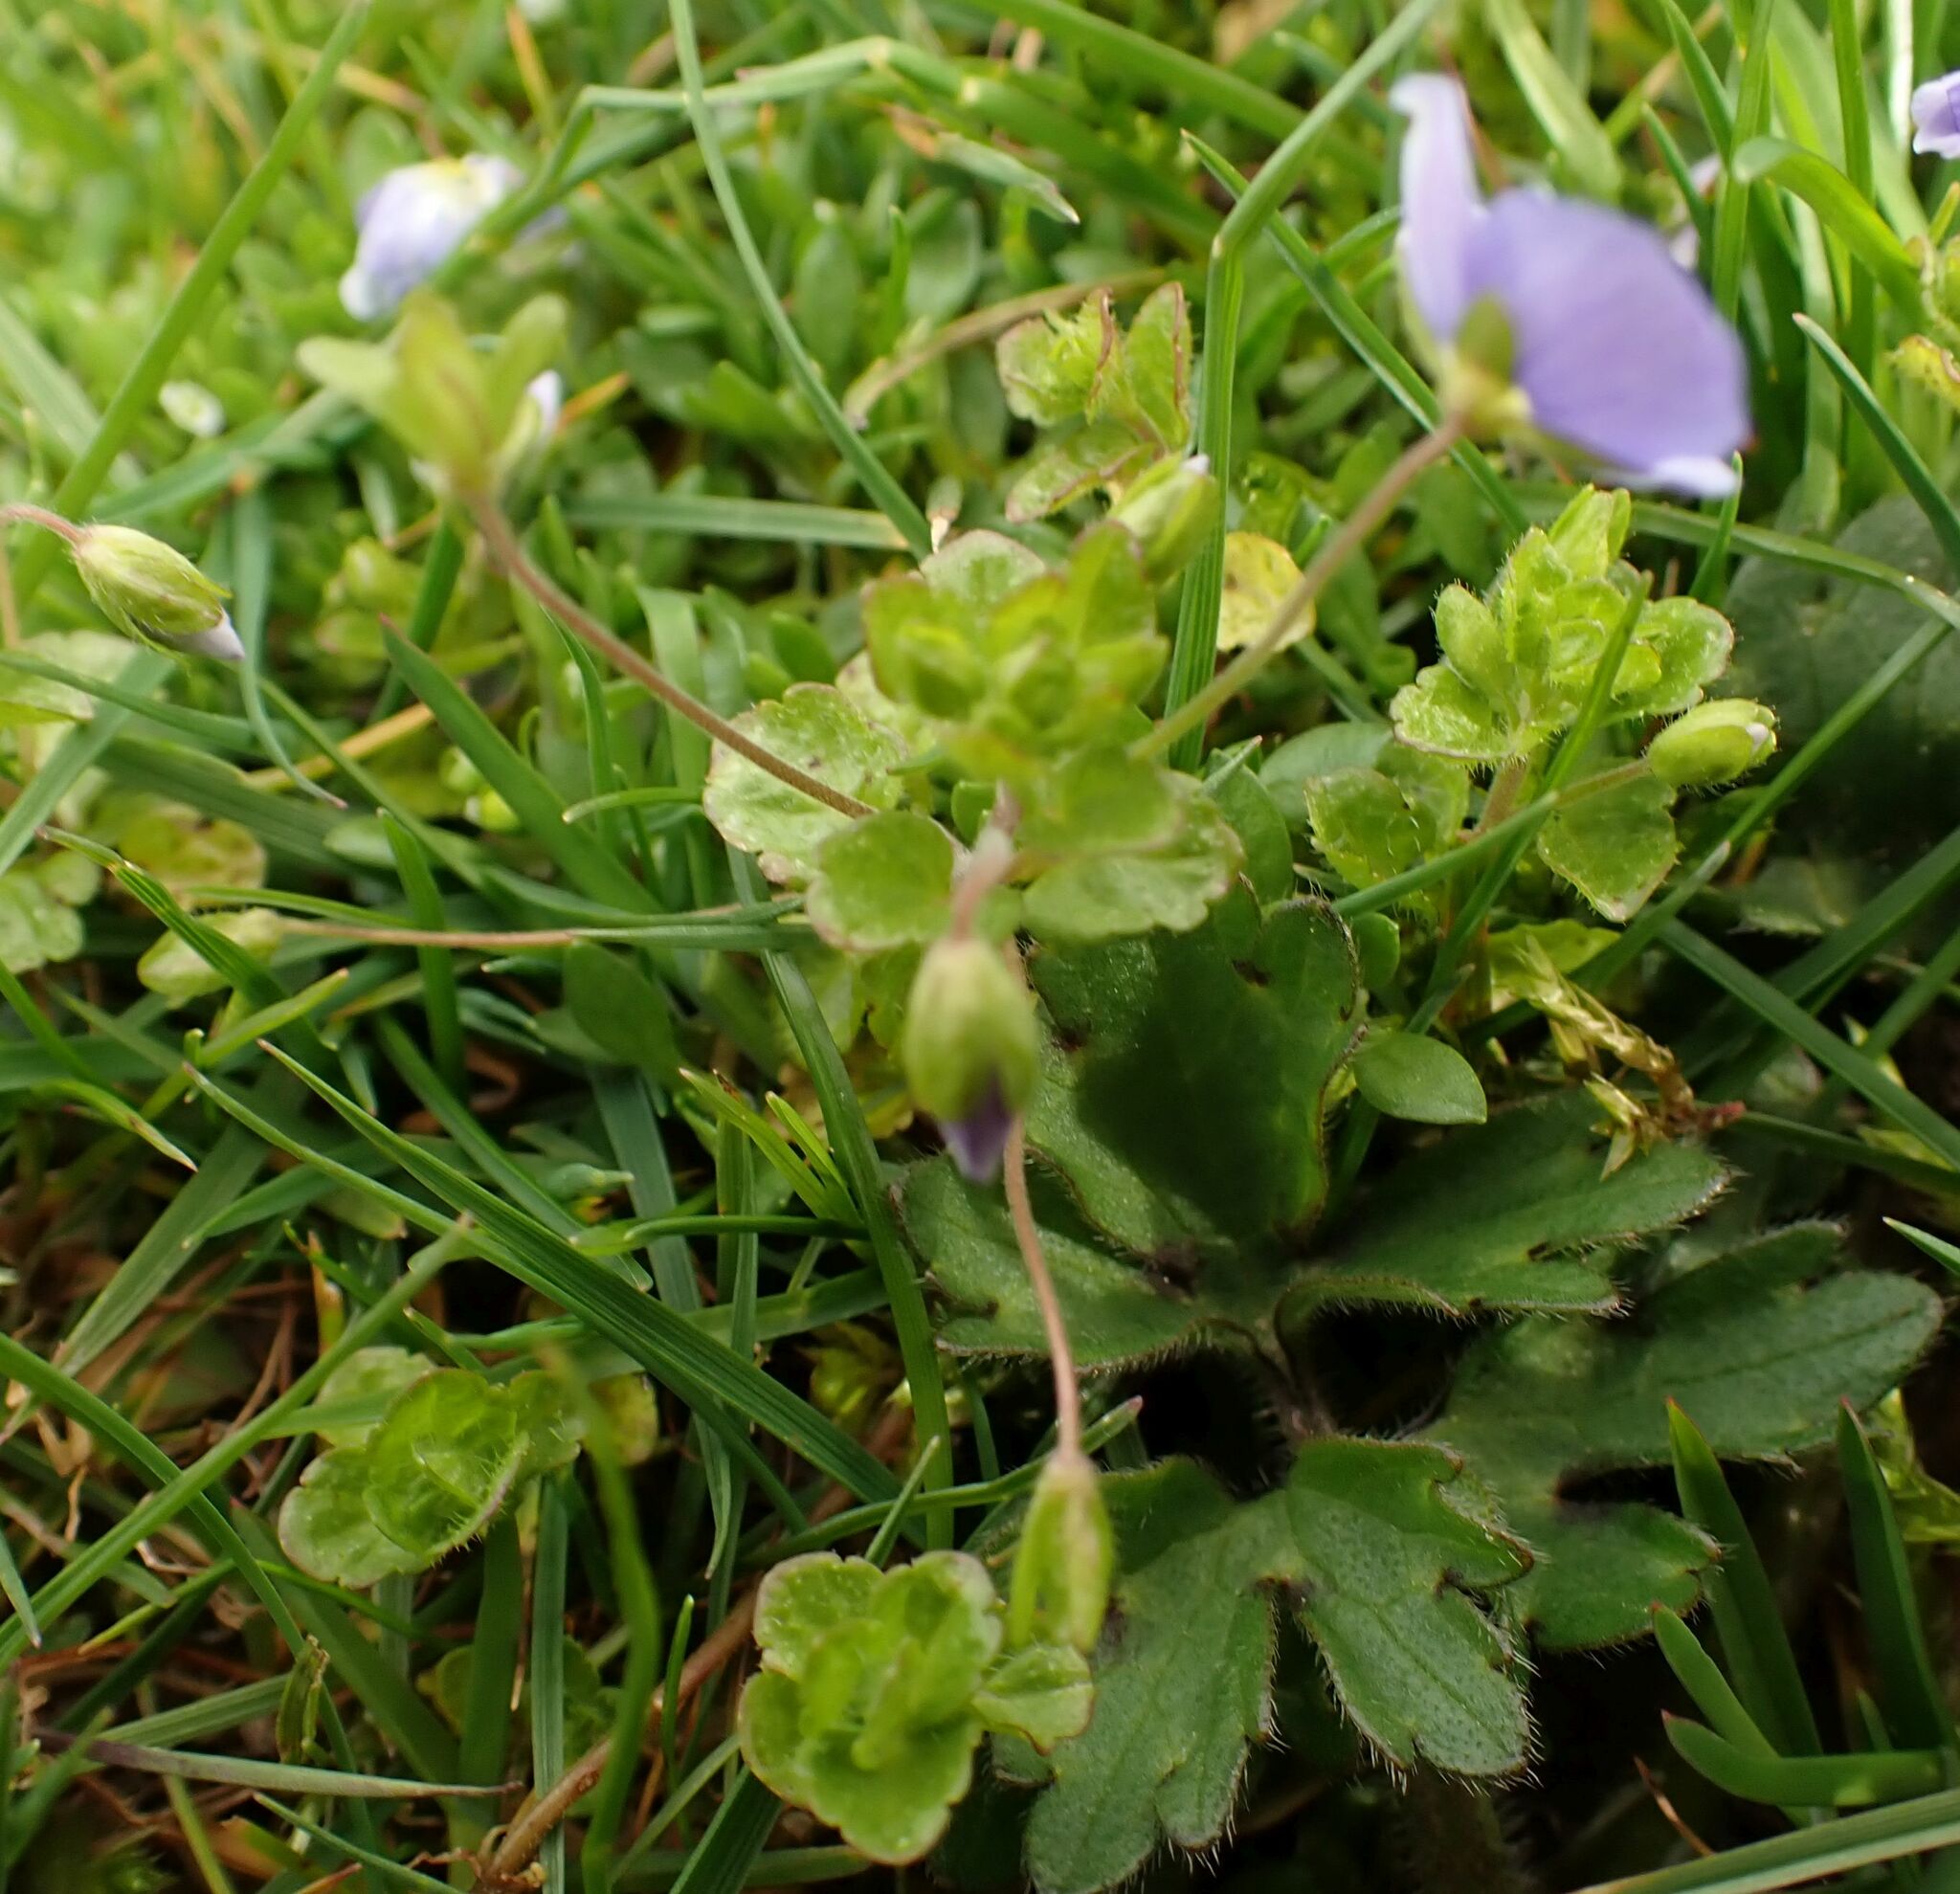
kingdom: Plantae
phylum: Tracheophyta
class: Magnoliopsida
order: Lamiales
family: Plantaginaceae
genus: Veronica
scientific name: Veronica filiformis
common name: Slender speedwell
